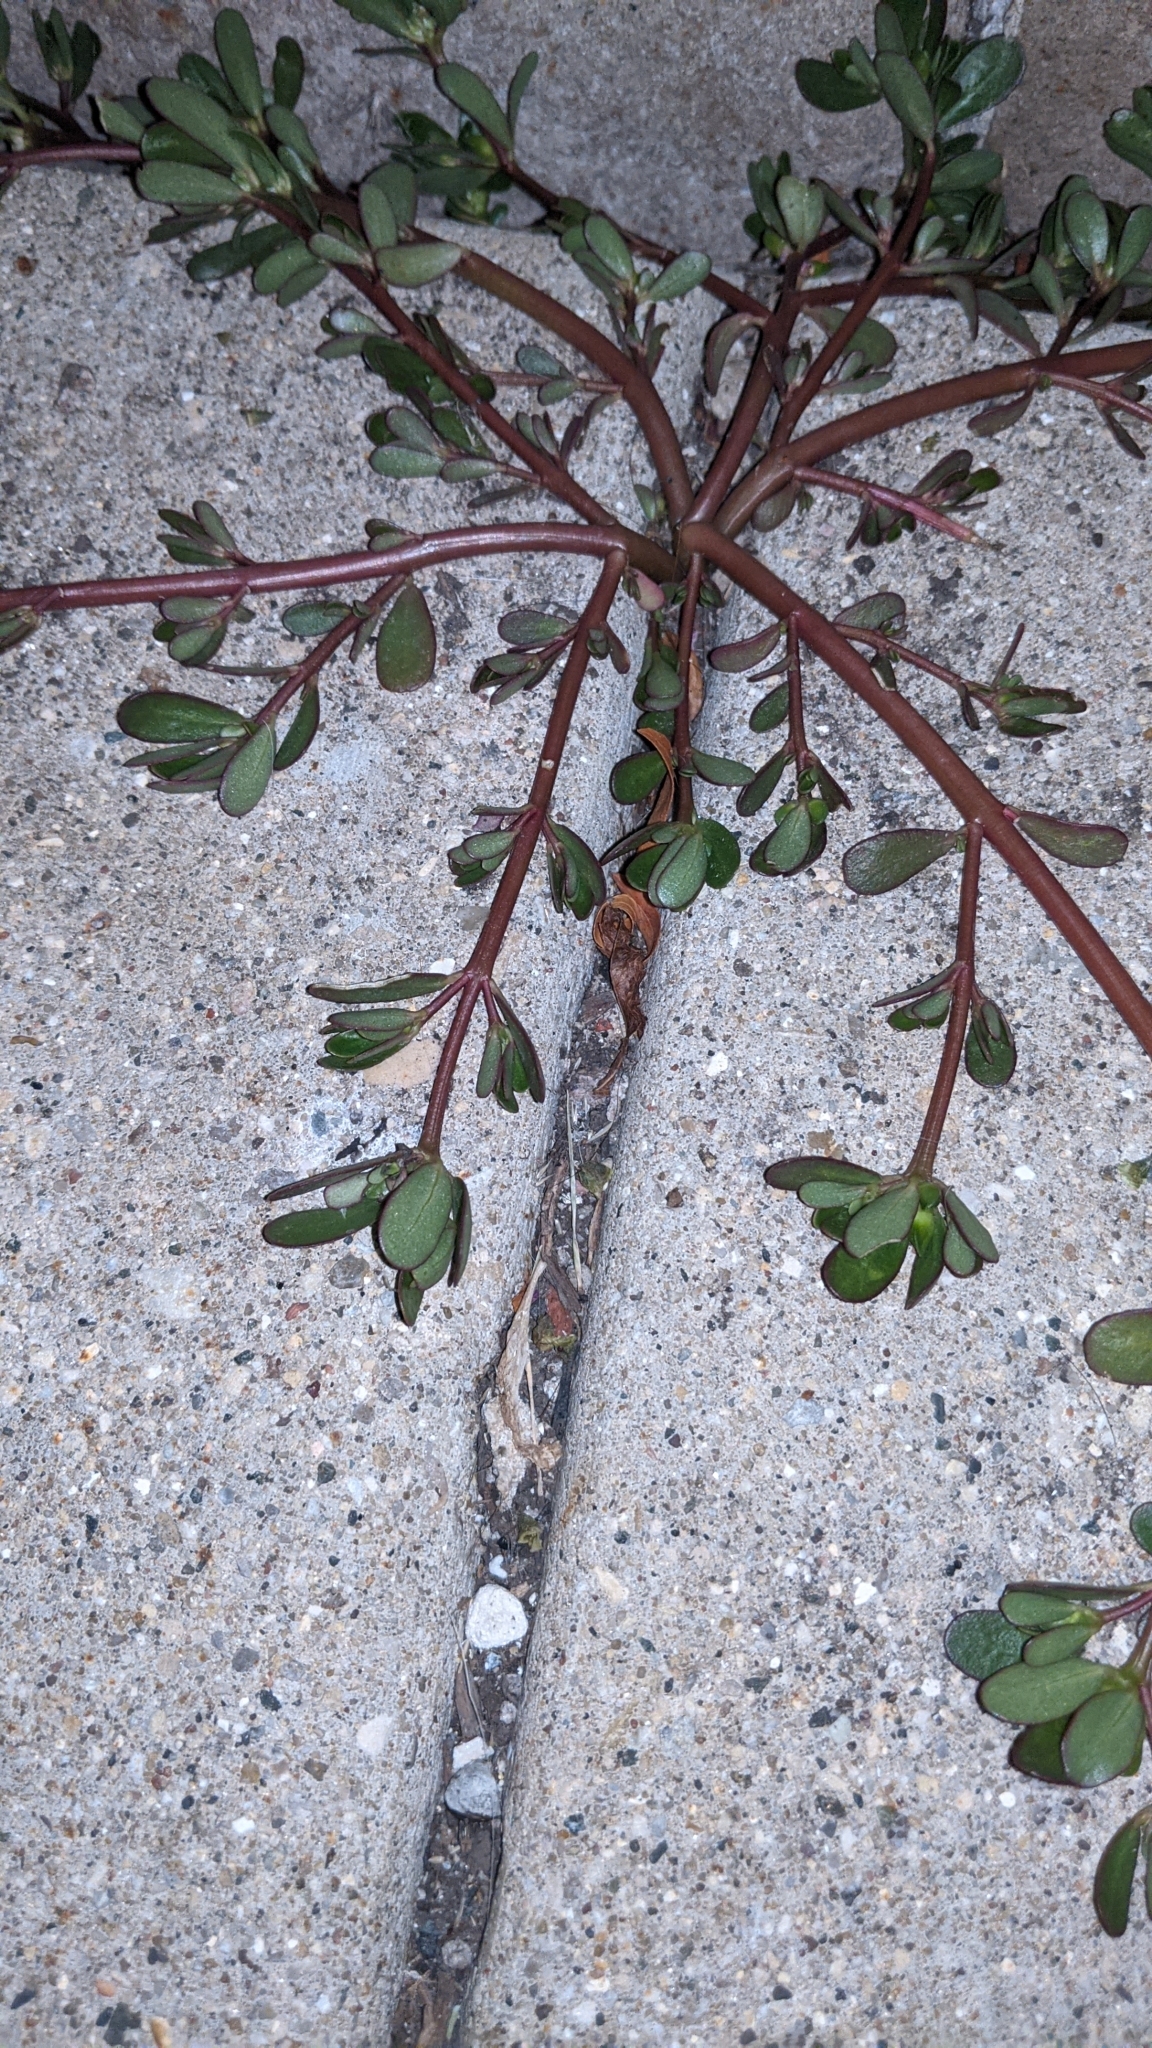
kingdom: Plantae
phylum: Tracheophyta
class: Magnoliopsida
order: Caryophyllales
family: Portulacaceae
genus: Portulaca
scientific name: Portulaca oleracea
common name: Common purslane
